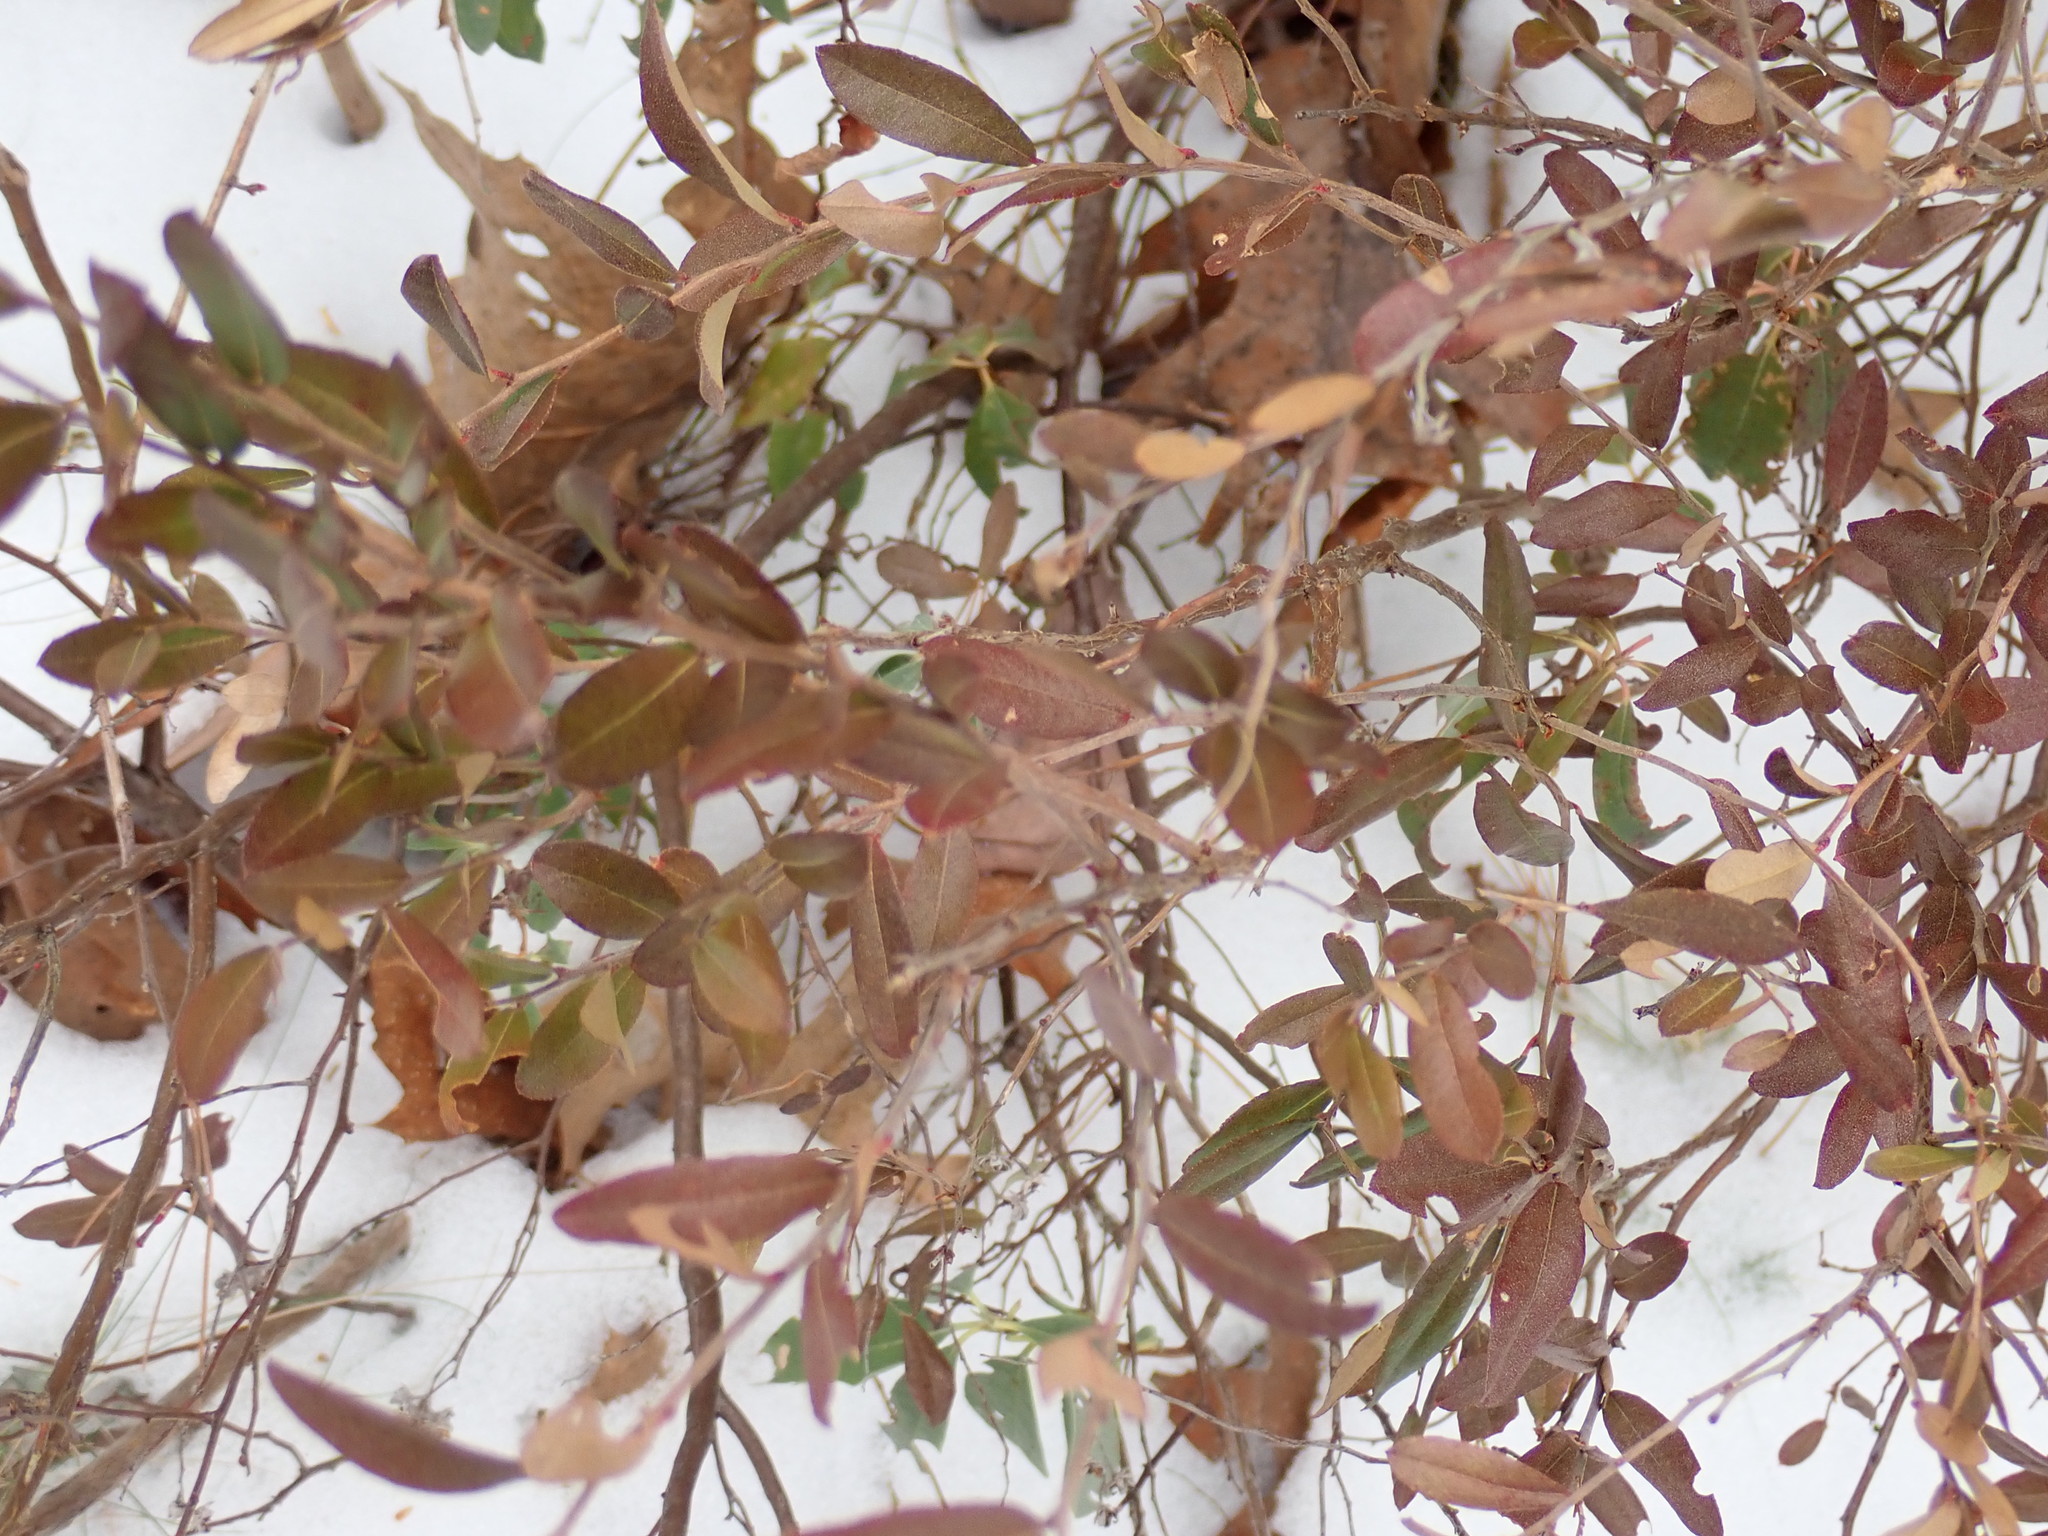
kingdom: Plantae
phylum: Tracheophyta
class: Magnoliopsida
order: Ericales
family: Ericaceae
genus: Chamaedaphne
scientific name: Chamaedaphne calyculata
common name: Leatherleaf
